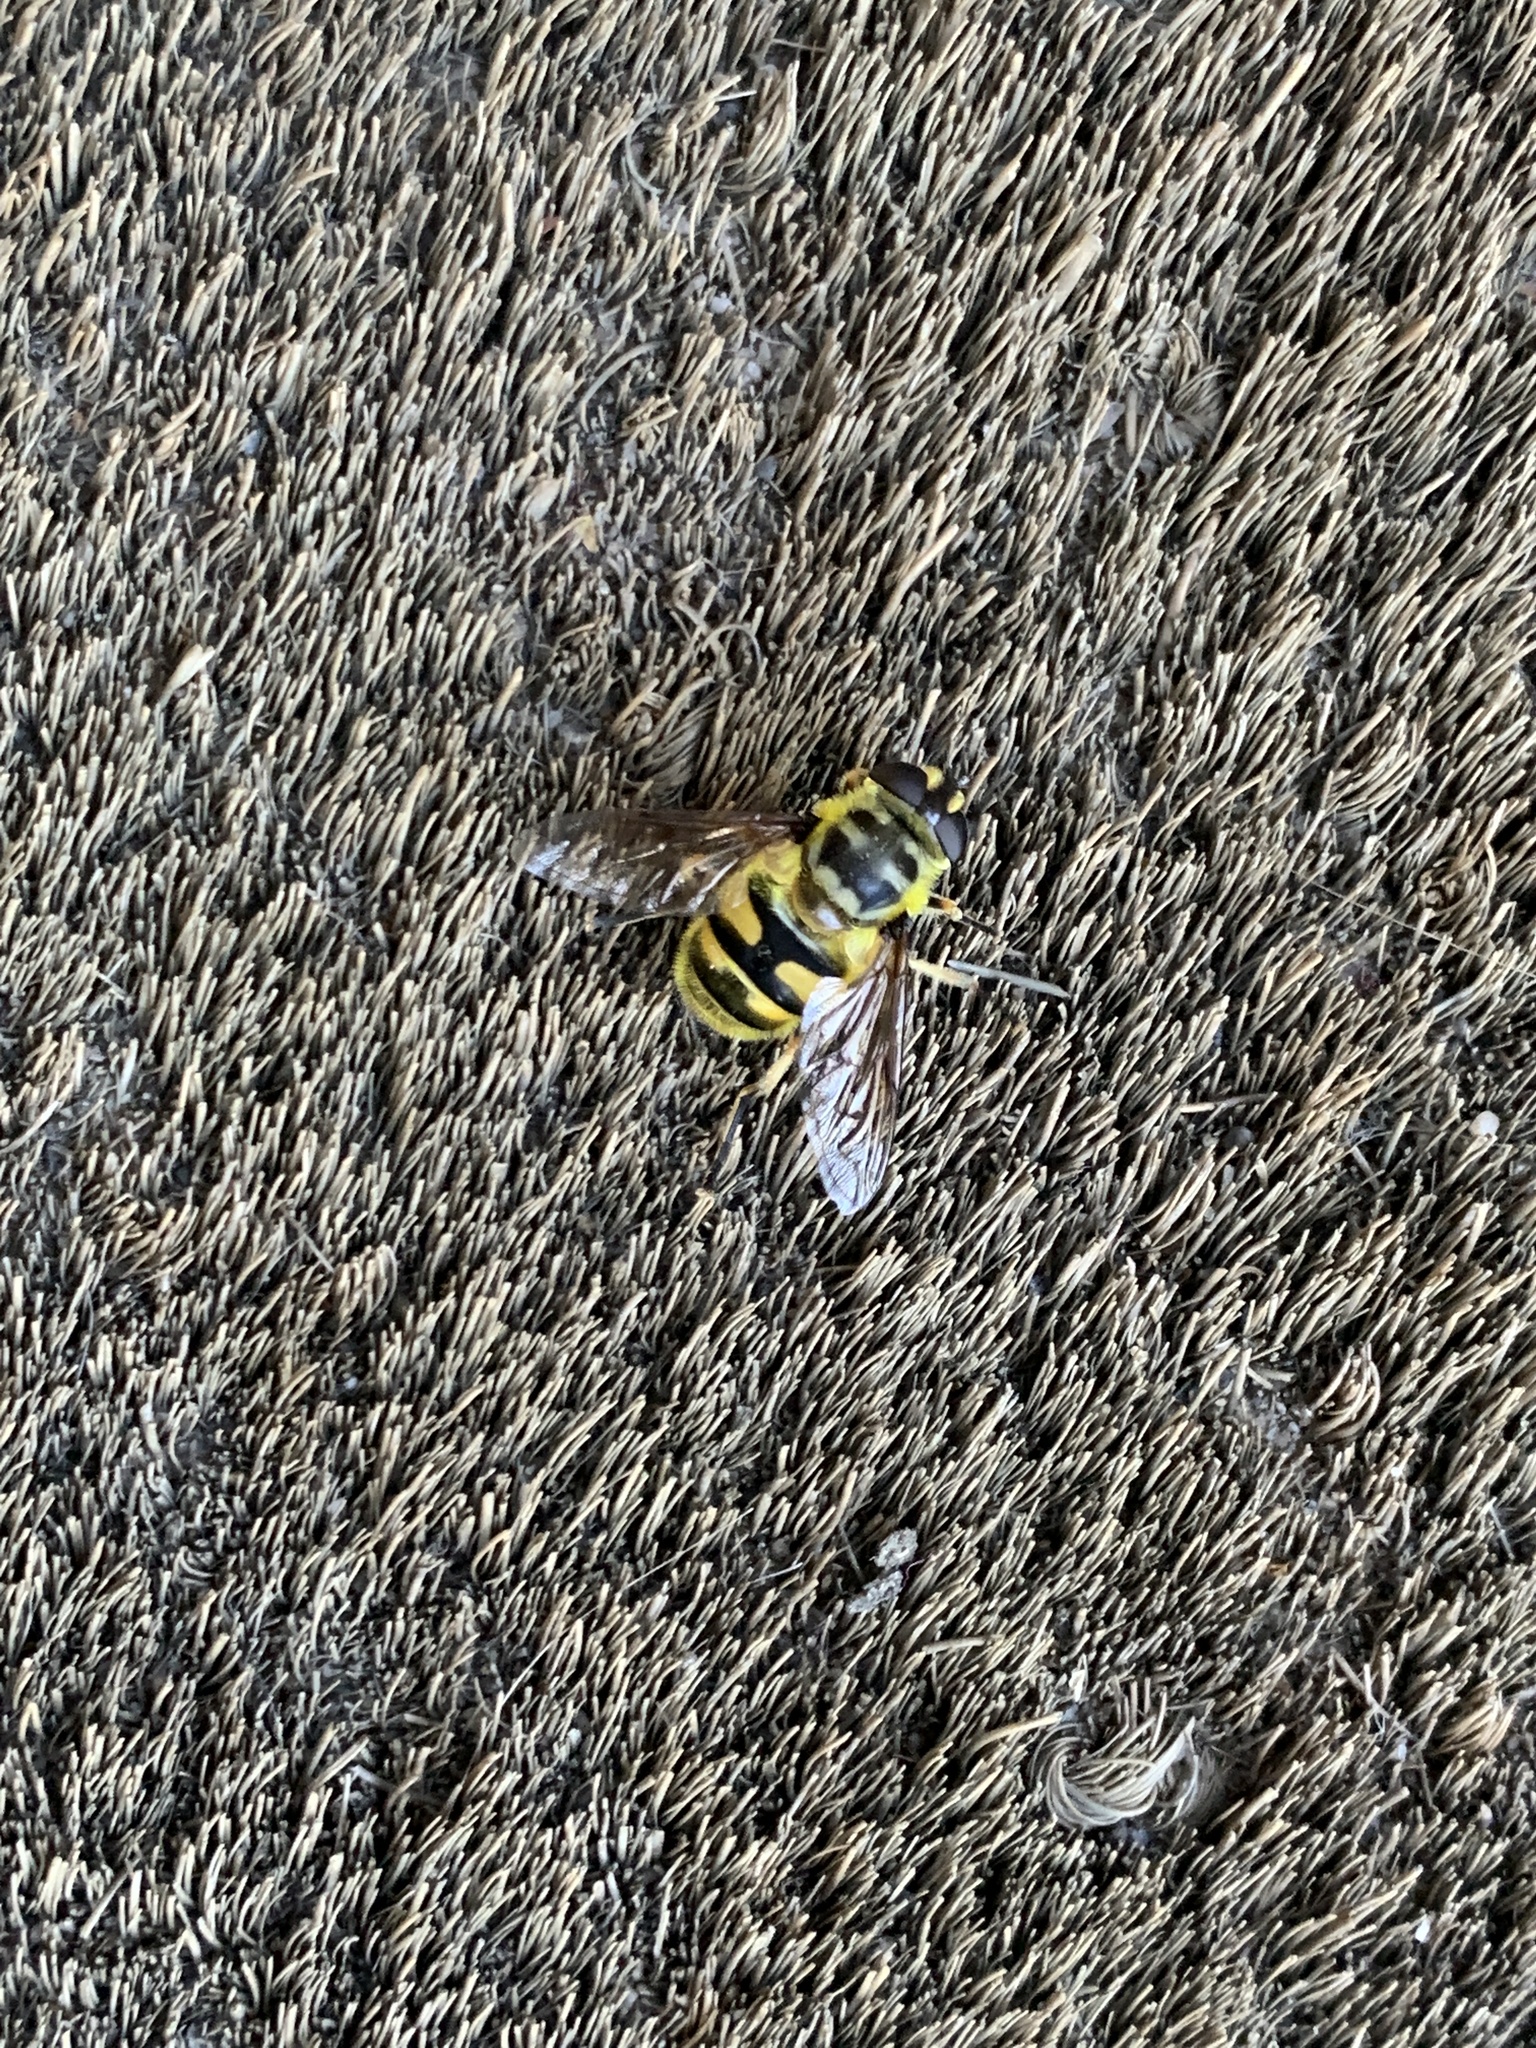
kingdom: Animalia
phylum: Arthropoda
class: Insecta
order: Diptera
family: Syrphidae
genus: Myathropa
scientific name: Myathropa florea
